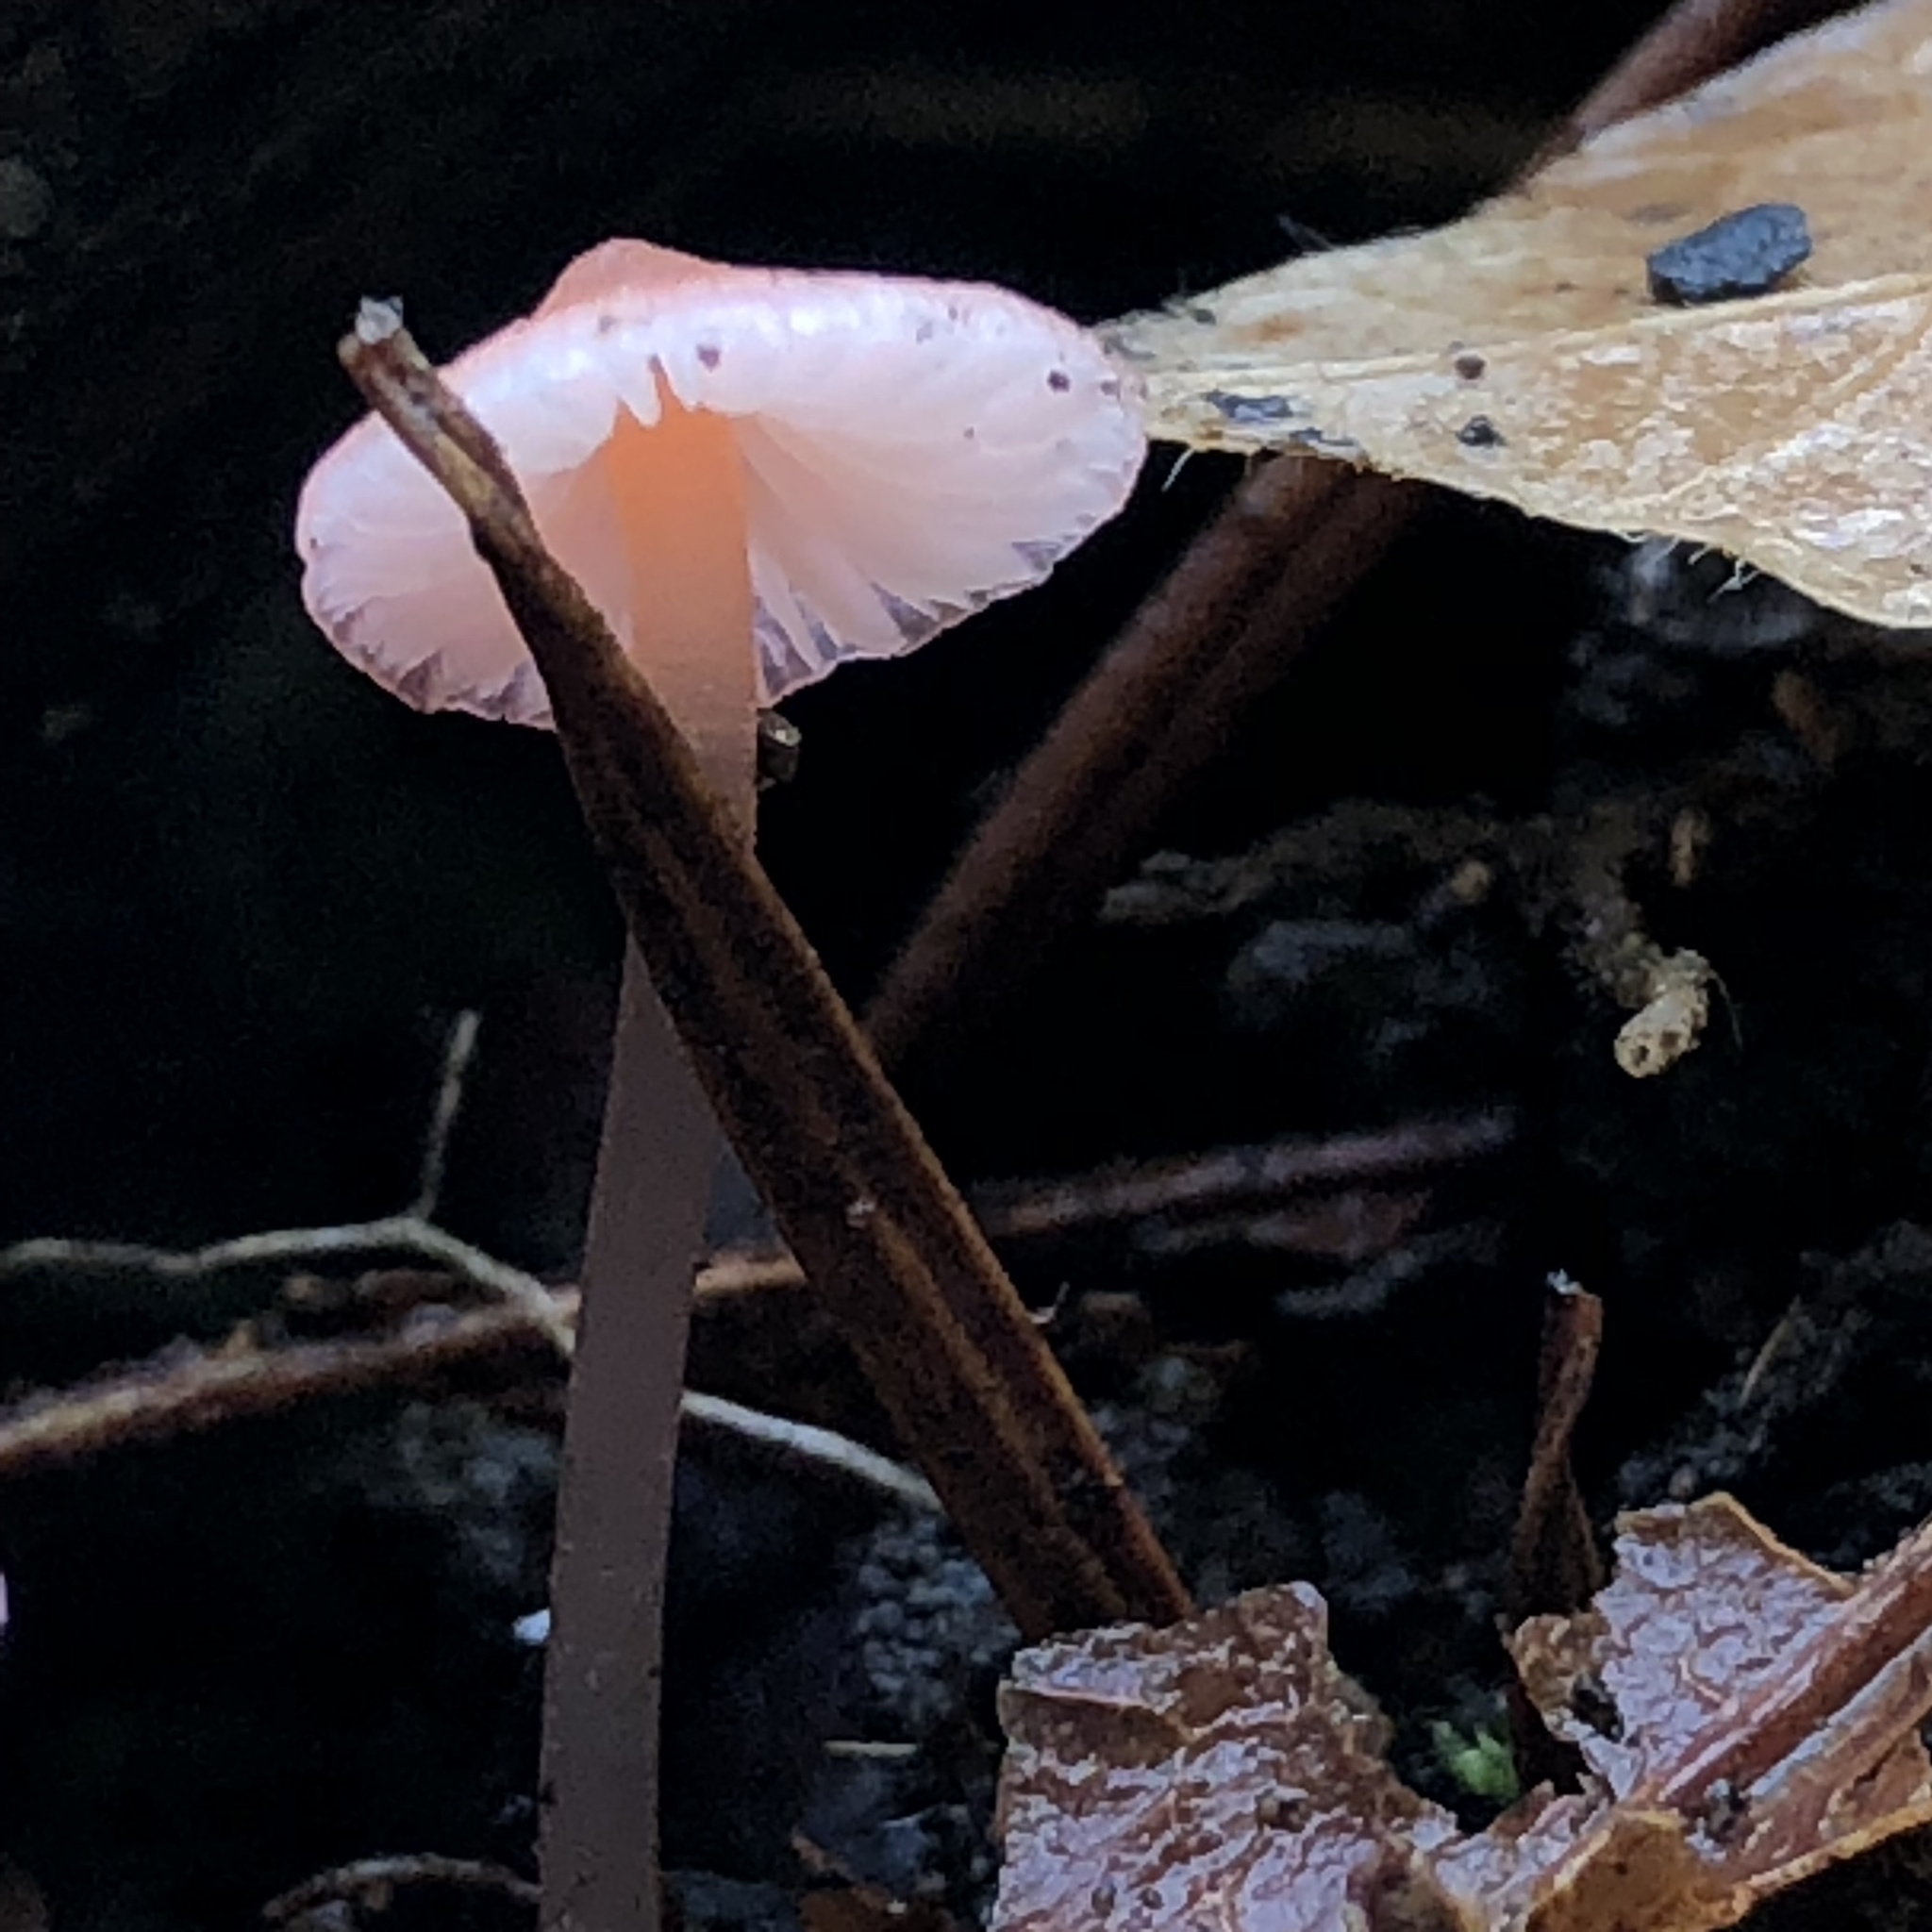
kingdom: Fungi
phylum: Basidiomycota
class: Agaricomycetes
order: Agaricales
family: Mycenaceae
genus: Atheniella
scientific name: Atheniella adonis
